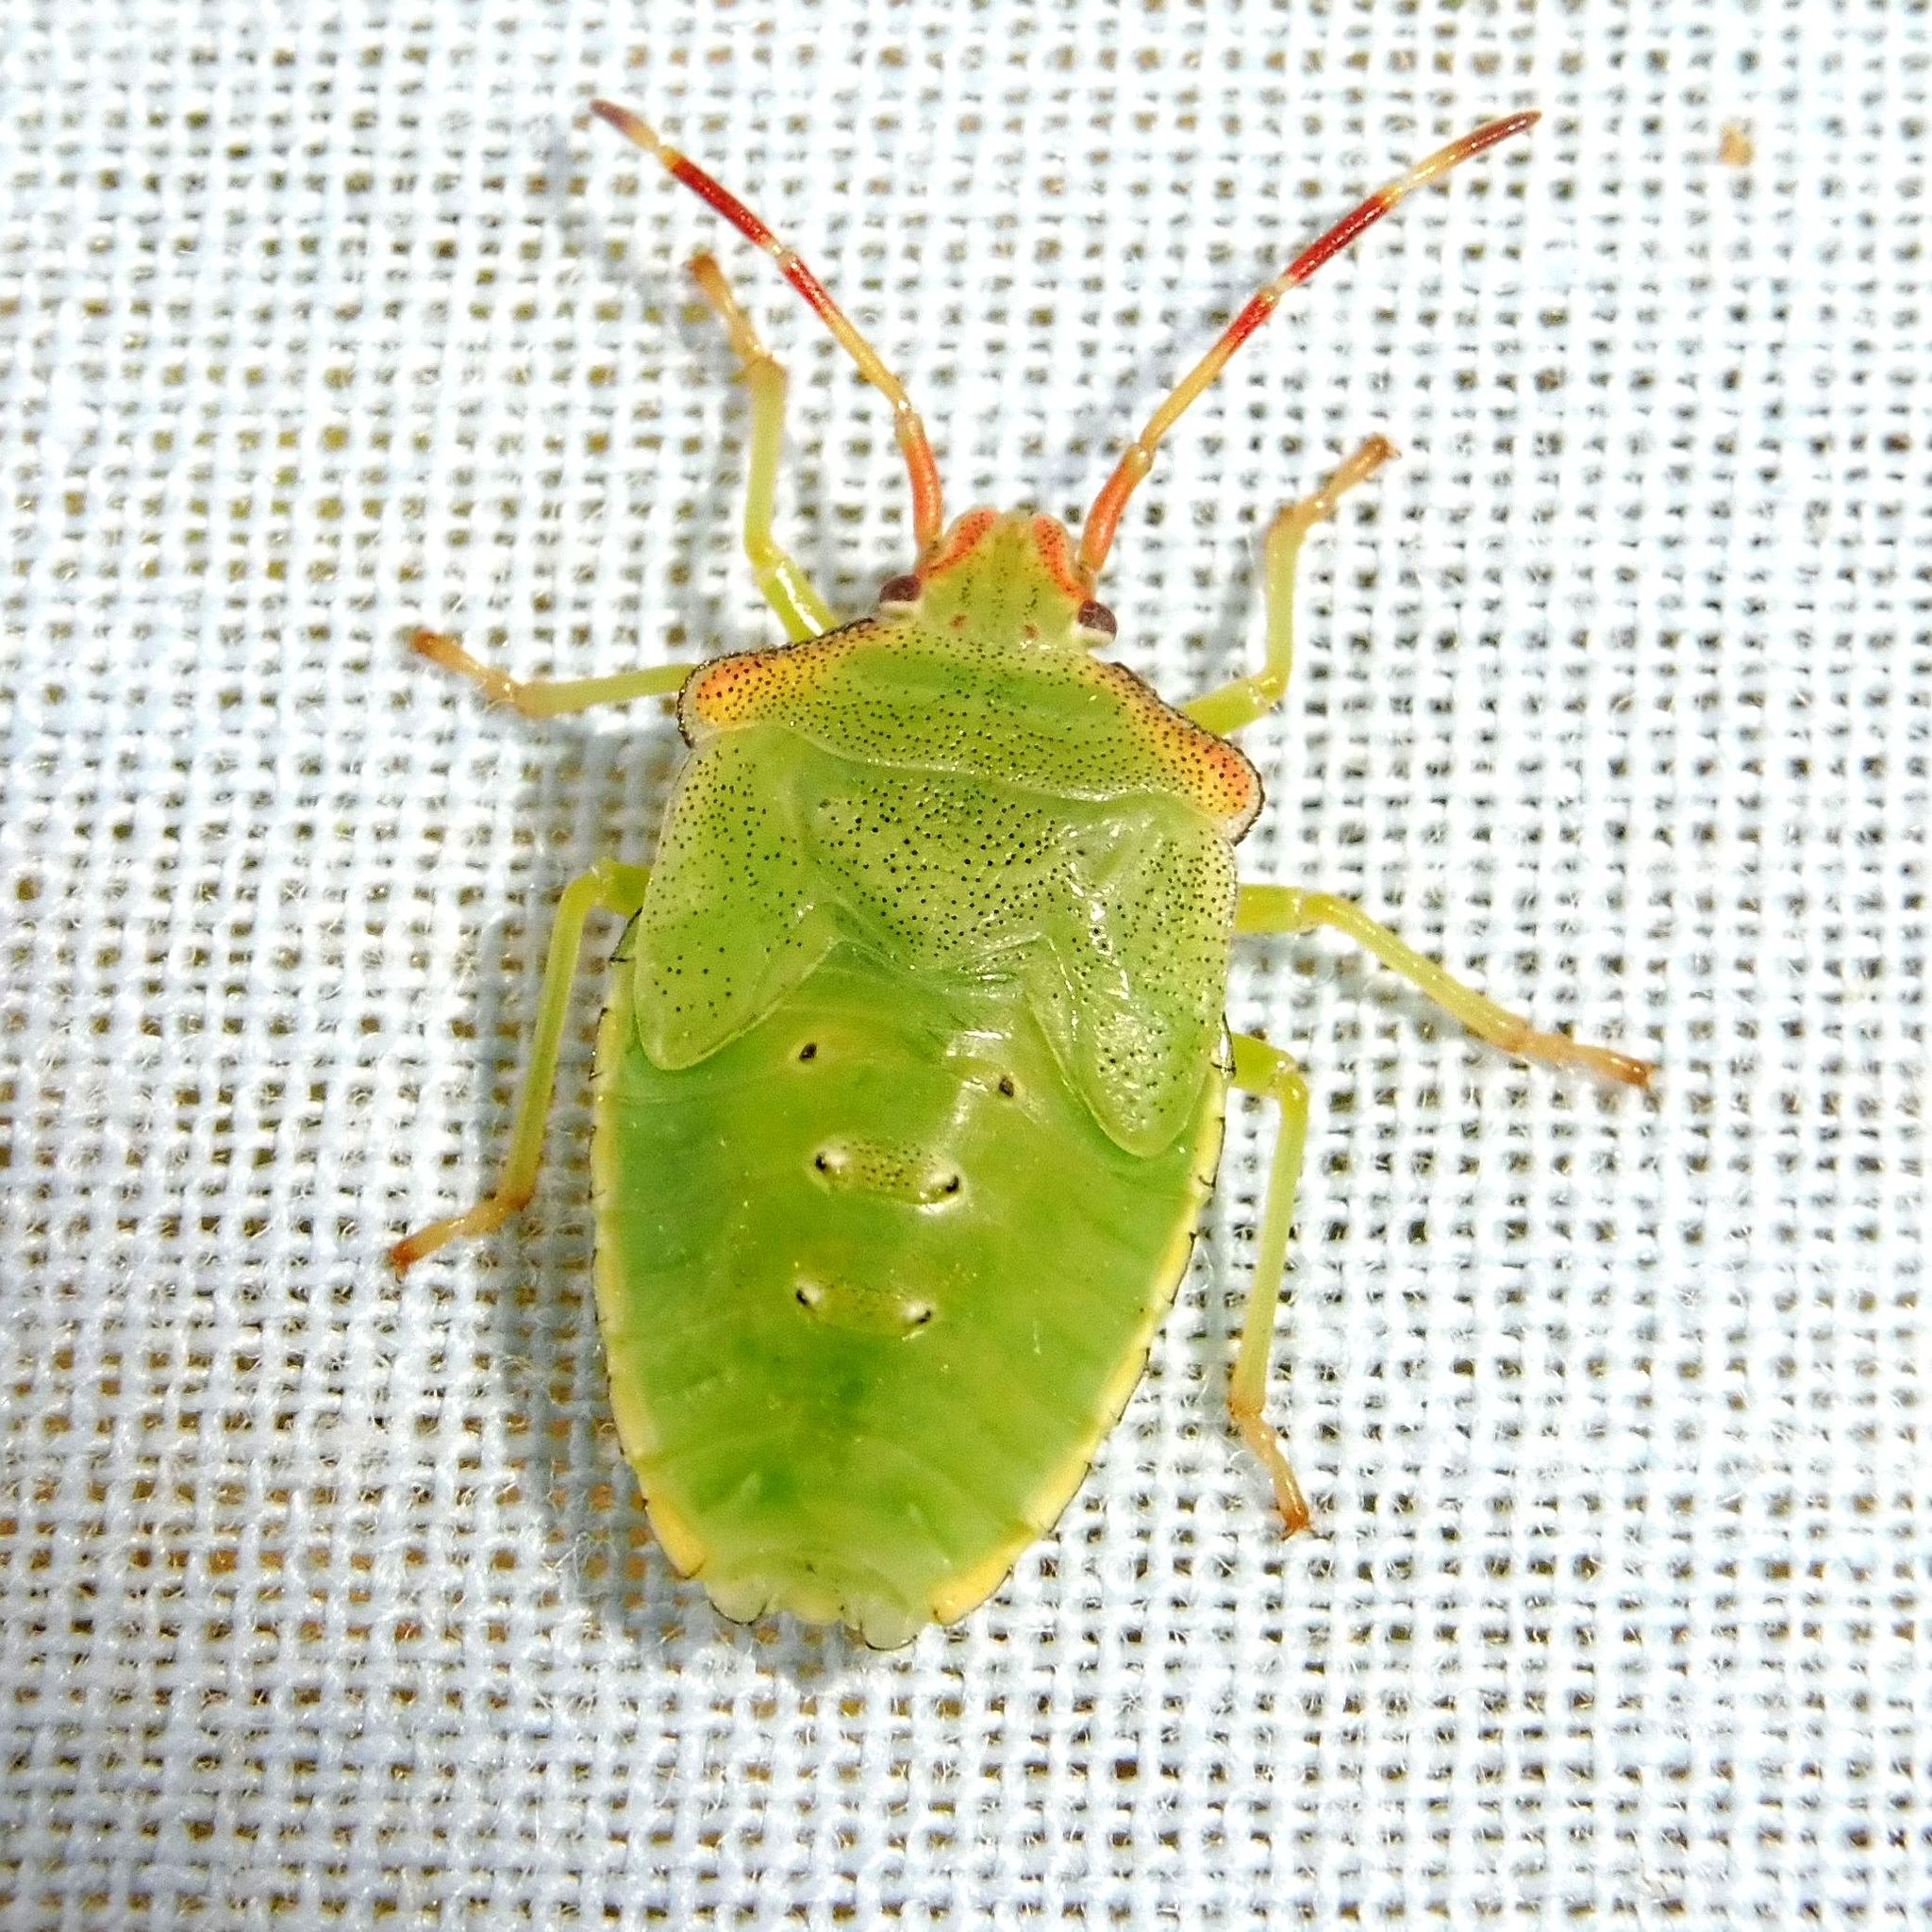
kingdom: Animalia
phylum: Arthropoda
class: Insecta
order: Hemiptera
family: Acanthosomatidae
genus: Acanthosoma
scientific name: Acanthosoma haemorrhoidale
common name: Hawthorn shieldbug
